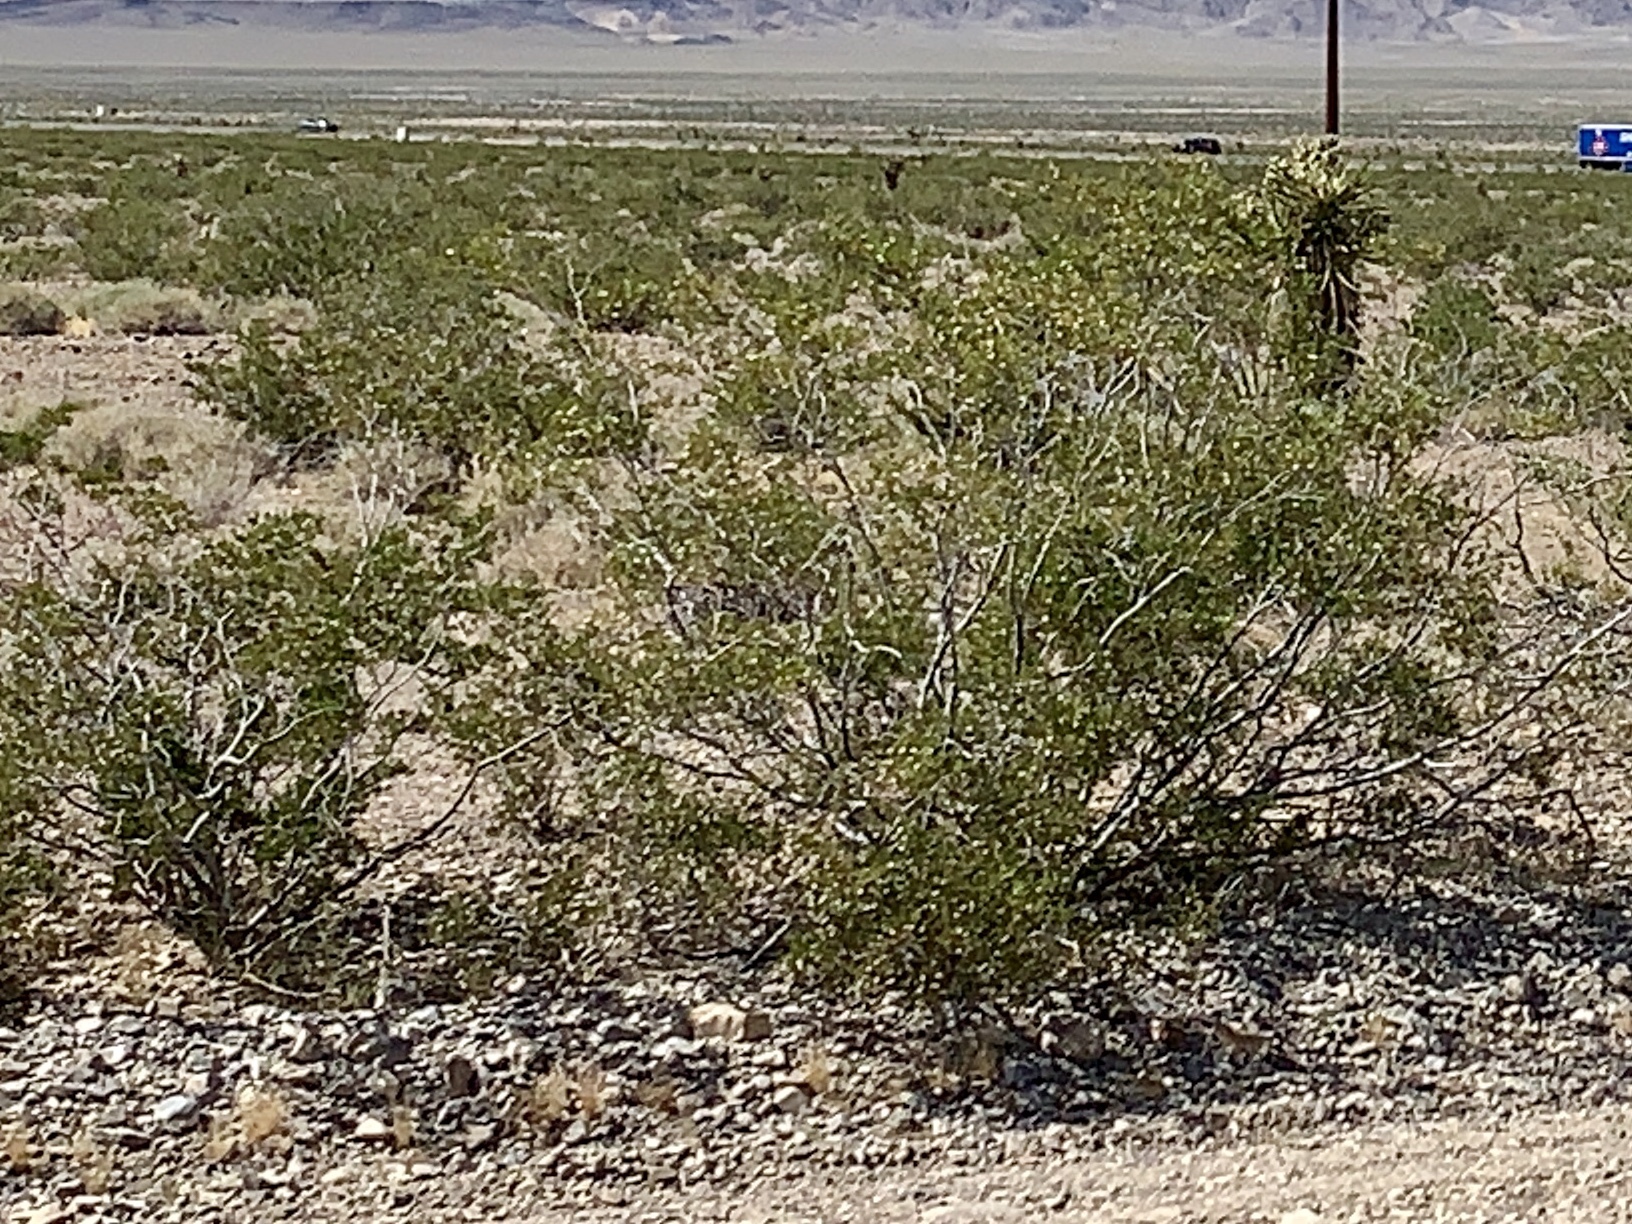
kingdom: Plantae
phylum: Tracheophyta
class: Magnoliopsida
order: Zygophyllales
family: Zygophyllaceae
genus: Larrea
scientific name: Larrea tridentata
